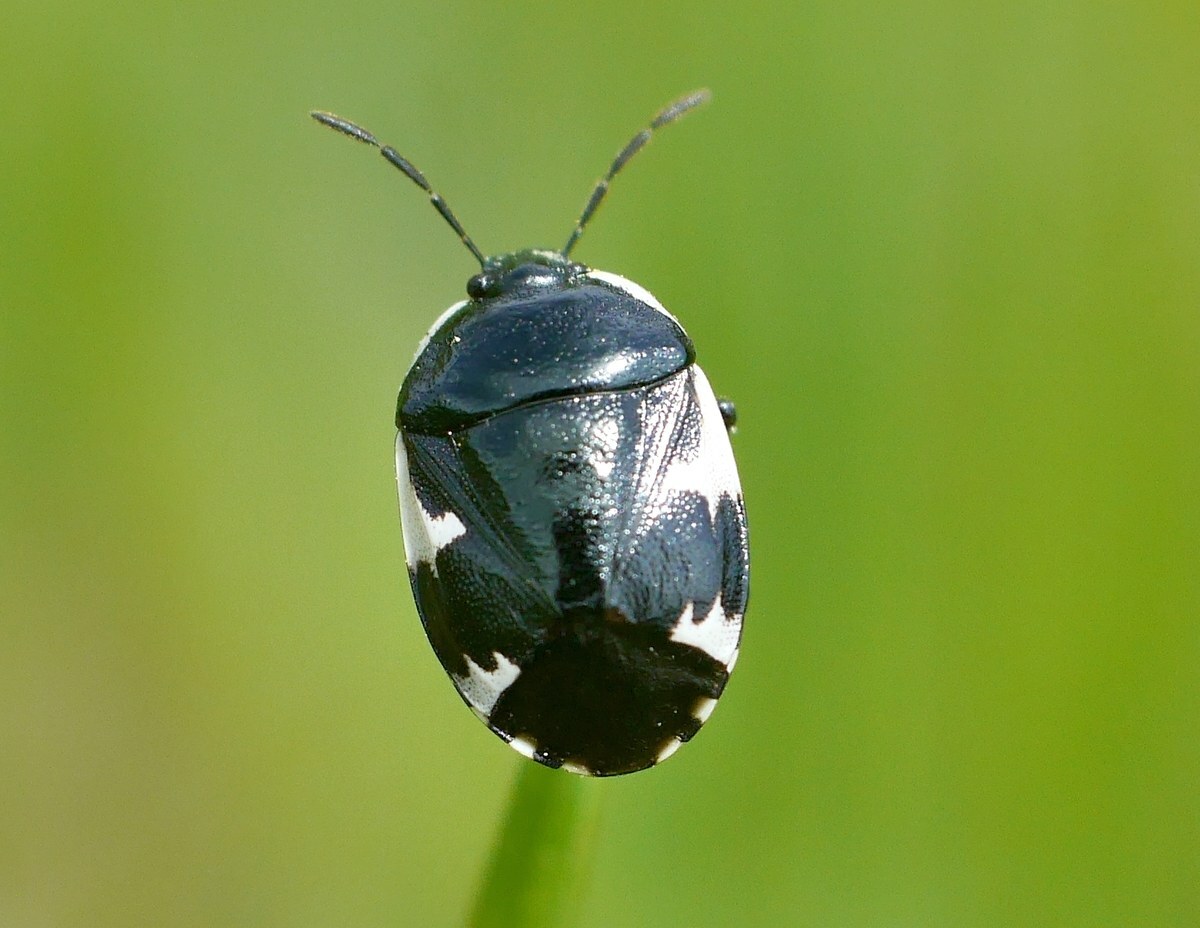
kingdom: Animalia
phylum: Arthropoda
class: Insecta
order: Hemiptera
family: Cydnidae
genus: Tritomegas
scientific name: Tritomegas sexmaculatus
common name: Rambur's pied shieldbug
